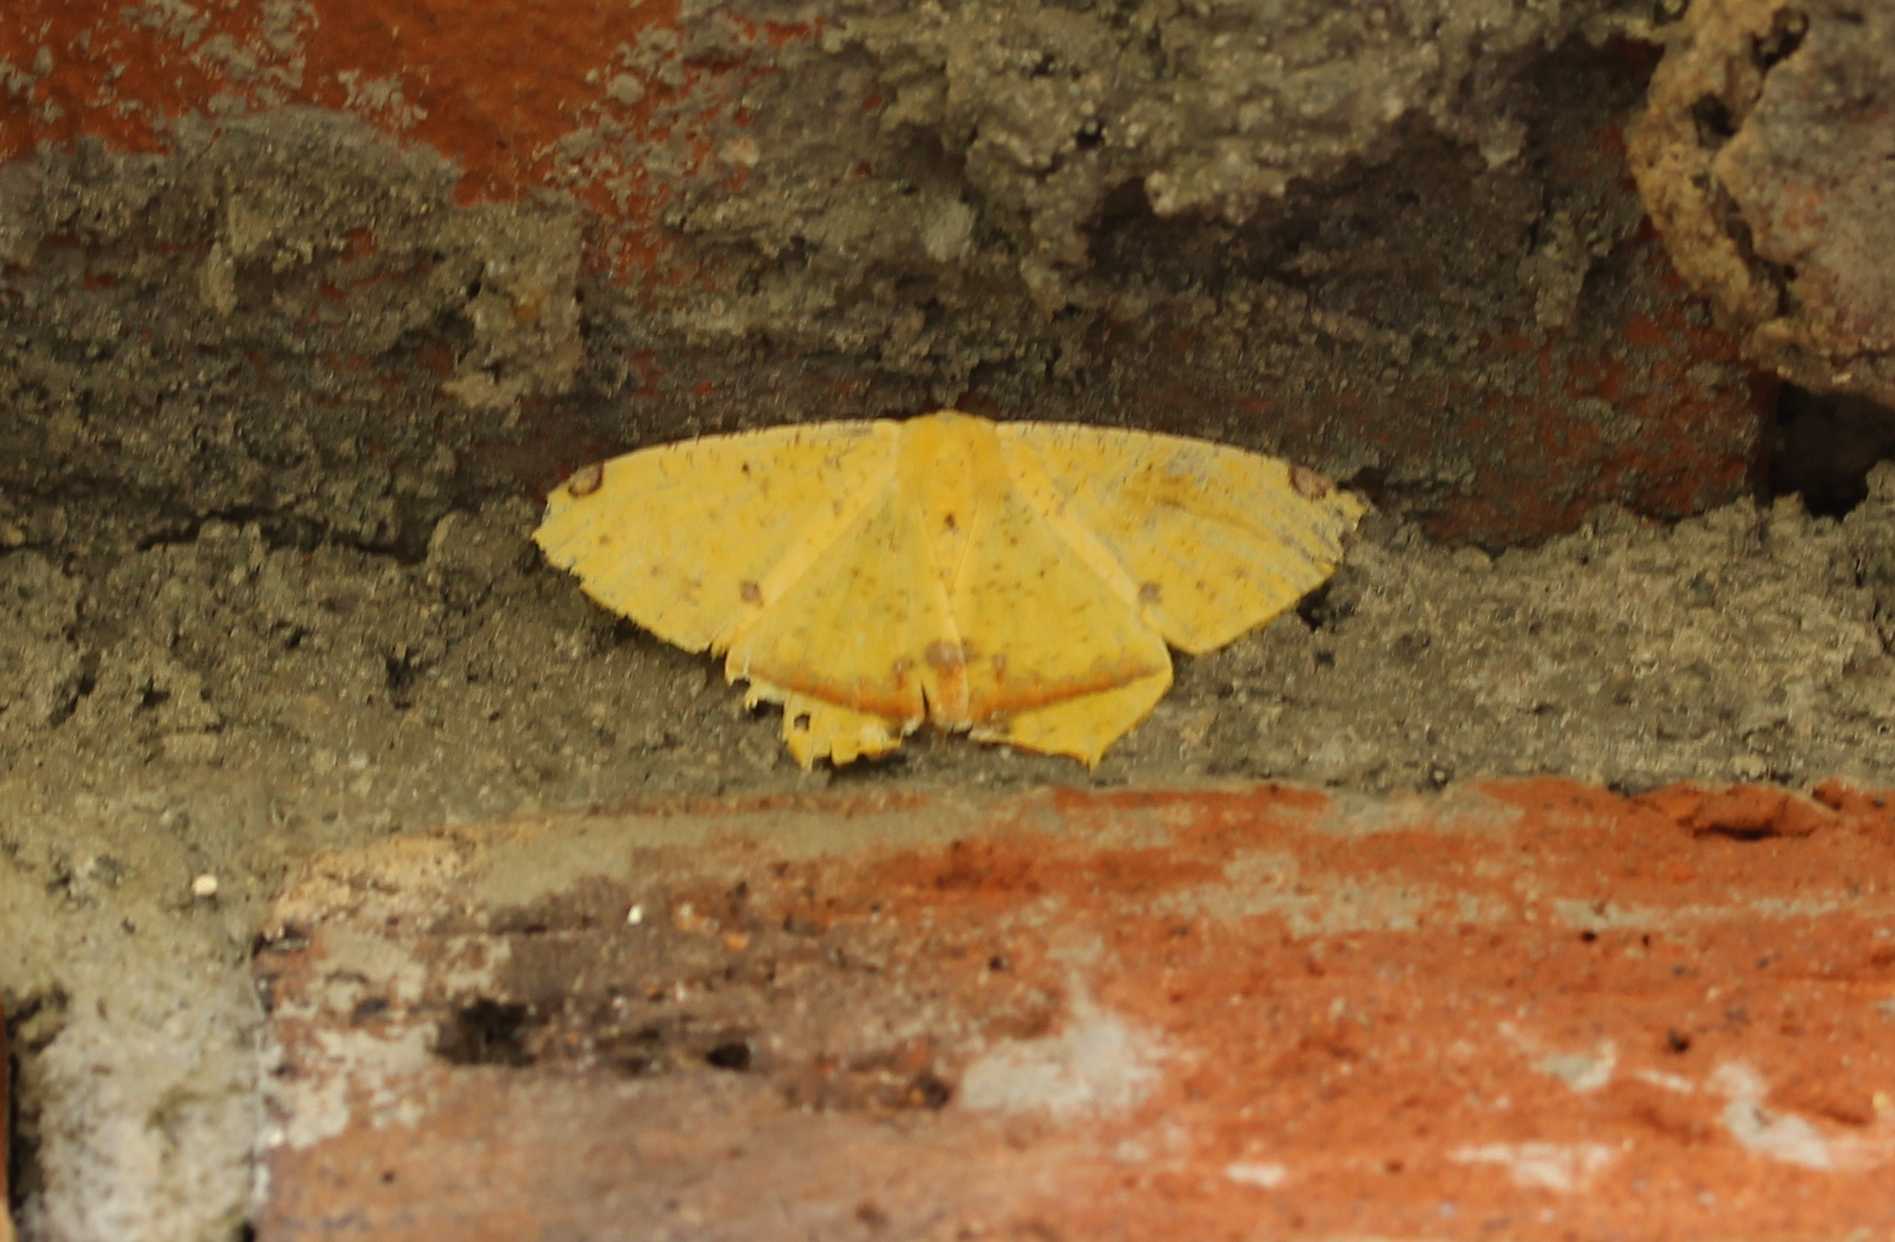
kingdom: Animalia
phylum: Arthropoda
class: Insecta
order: Lepidoptera
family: Geometridae
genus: Nepheloleuca
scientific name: Nepheloleuca politia
